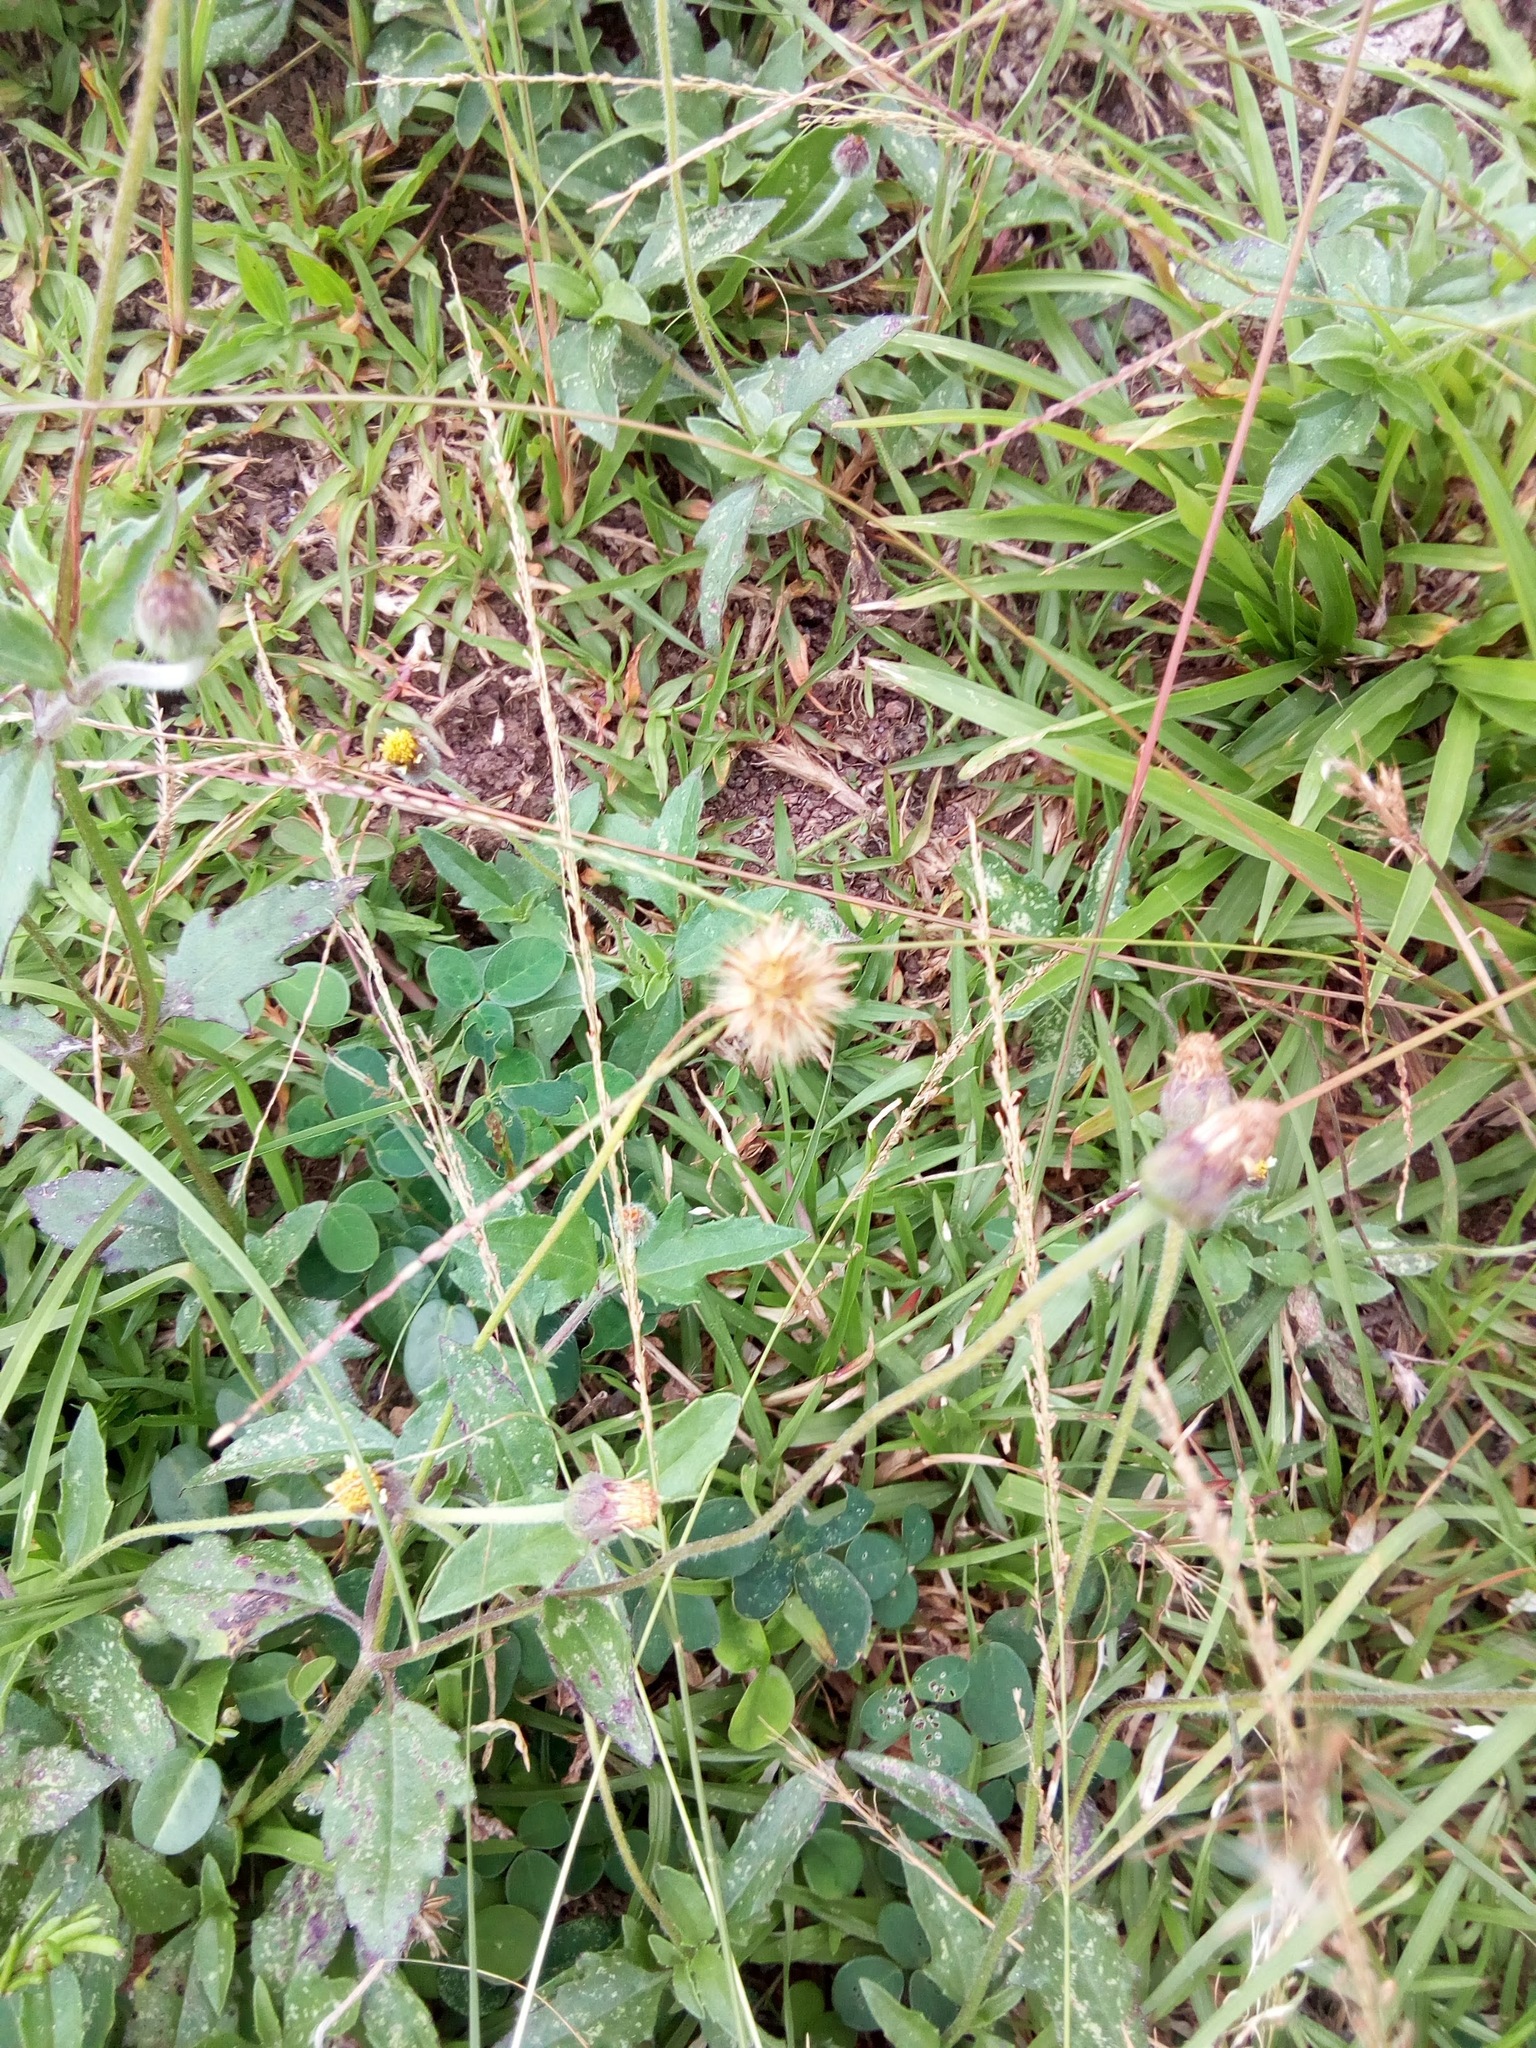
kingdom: Plantae
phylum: Tracheophyta
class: Magnoliopsida
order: Asterales
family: Asteraceae
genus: Tridax
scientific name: Tridax procumbens
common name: Coatbuttons
